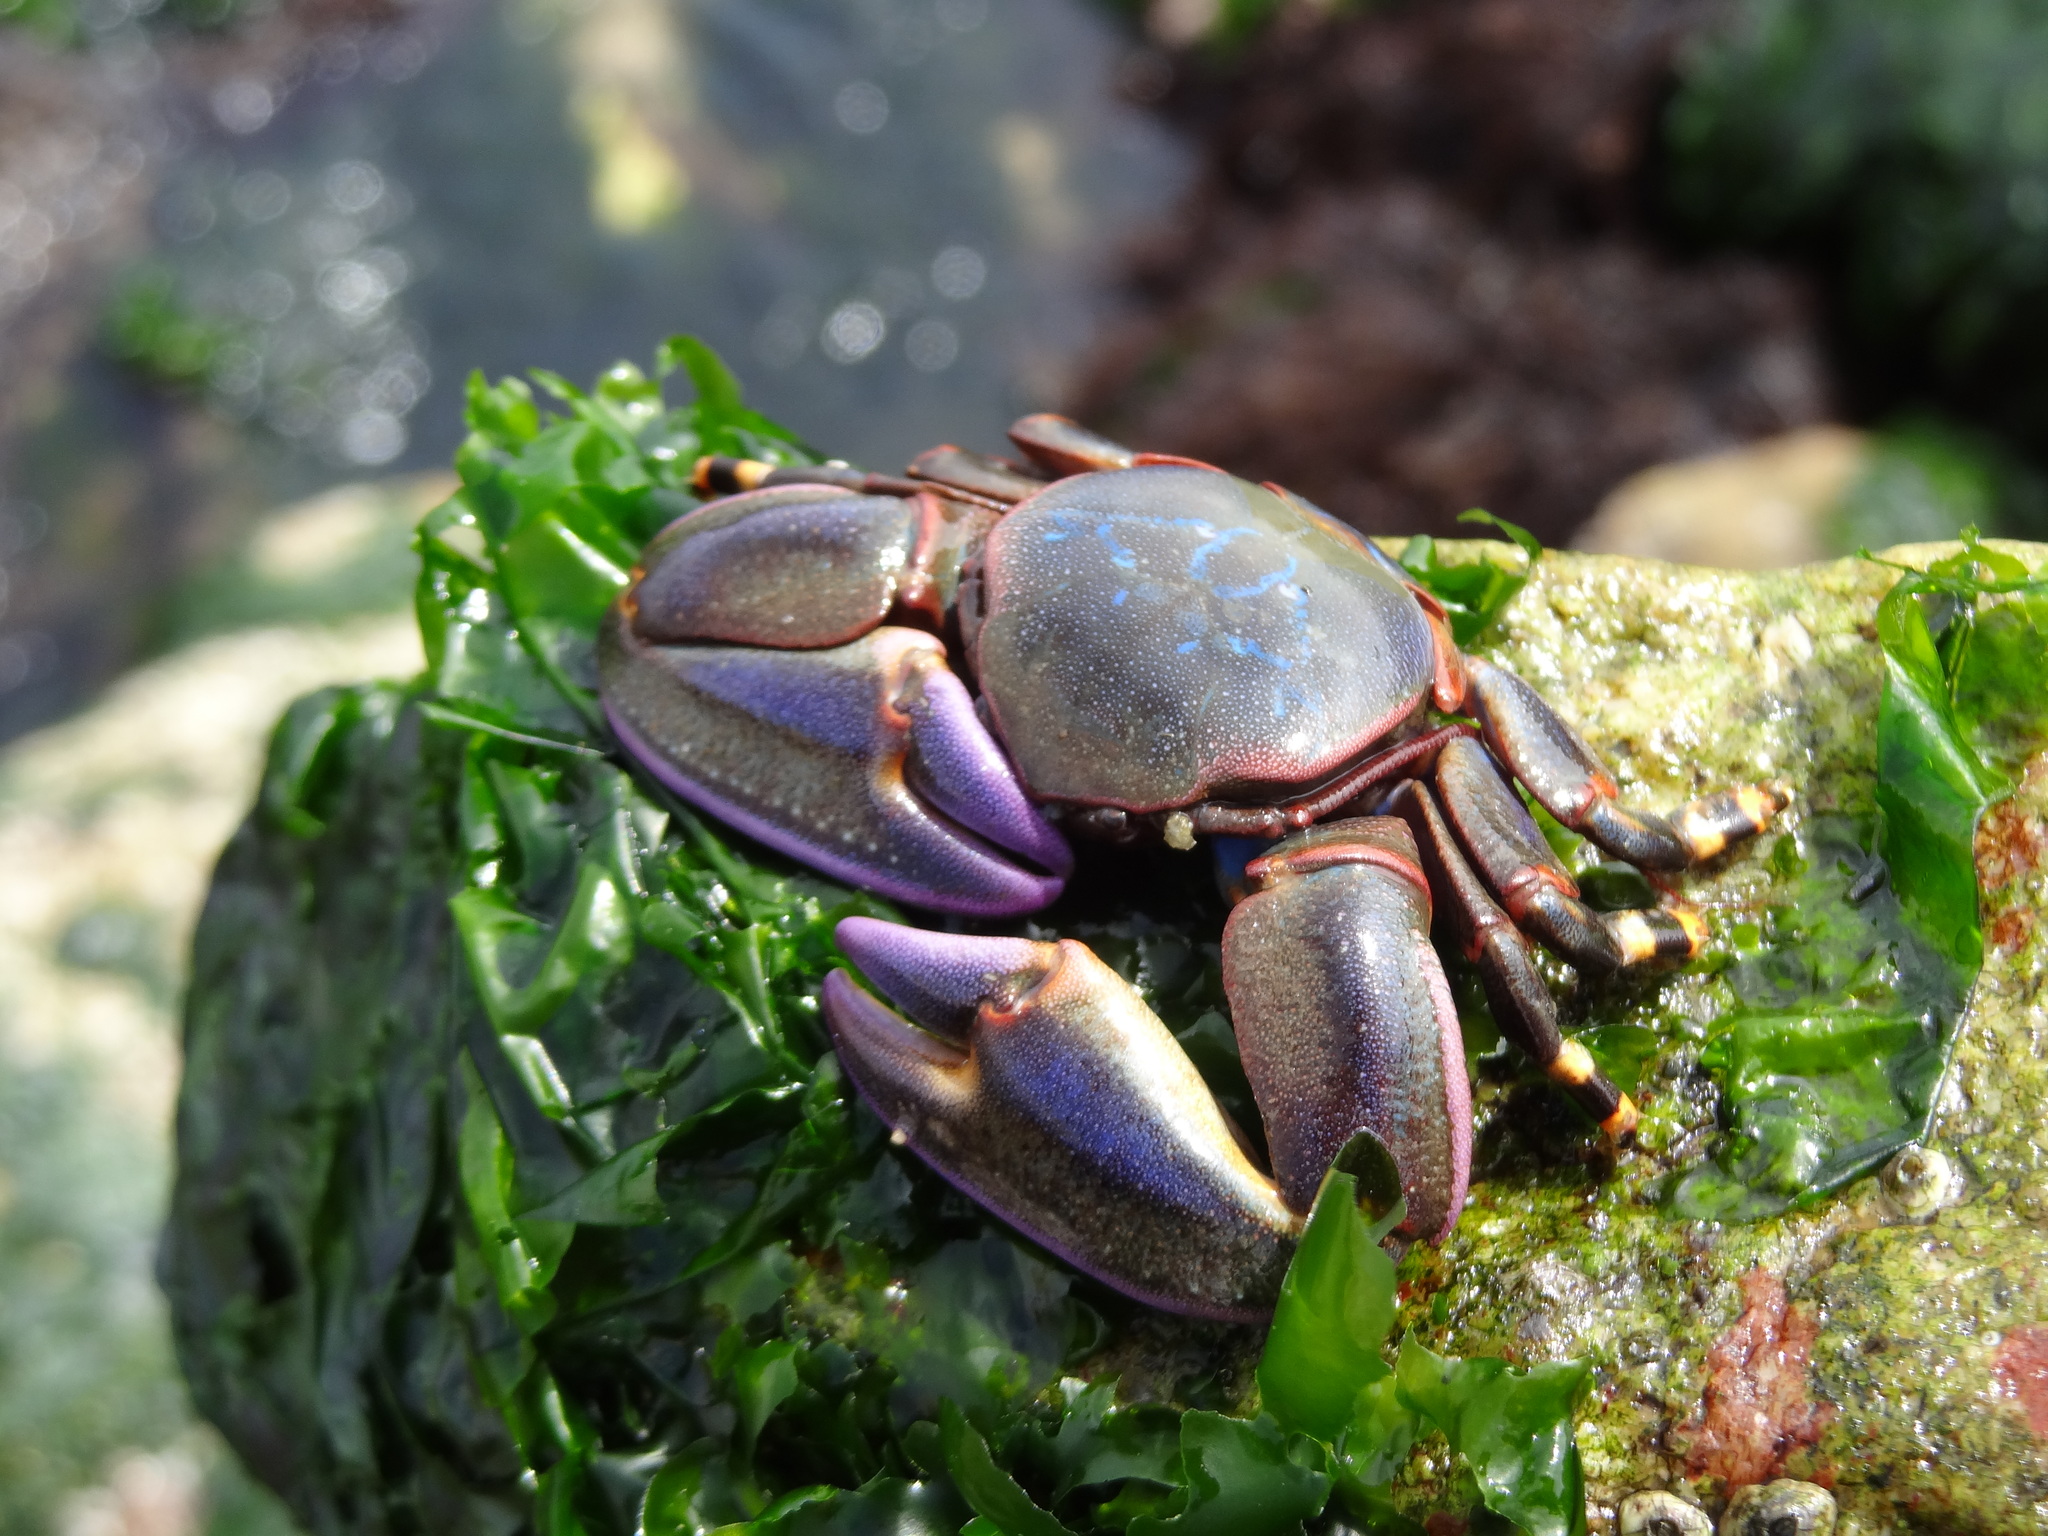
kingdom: Animalia
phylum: Arthropoda
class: Malacostraca
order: Decapoda
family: Porcellanidae
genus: Petrolisthes
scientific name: Petrolisthes violaceus
